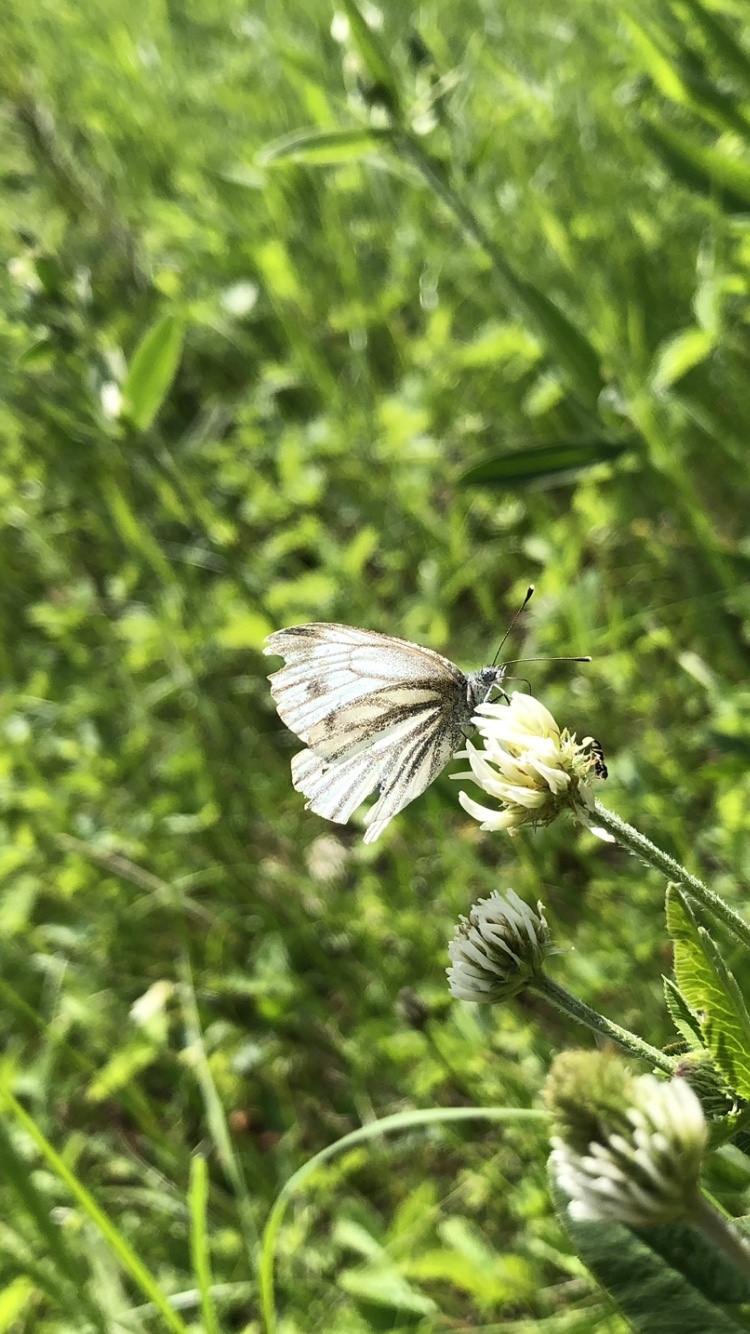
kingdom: Animalia
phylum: Arthropoda
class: Insecta
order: Lepidoptera
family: Pieridae
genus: Pieris
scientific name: Pieris napi
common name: Green-veined white
